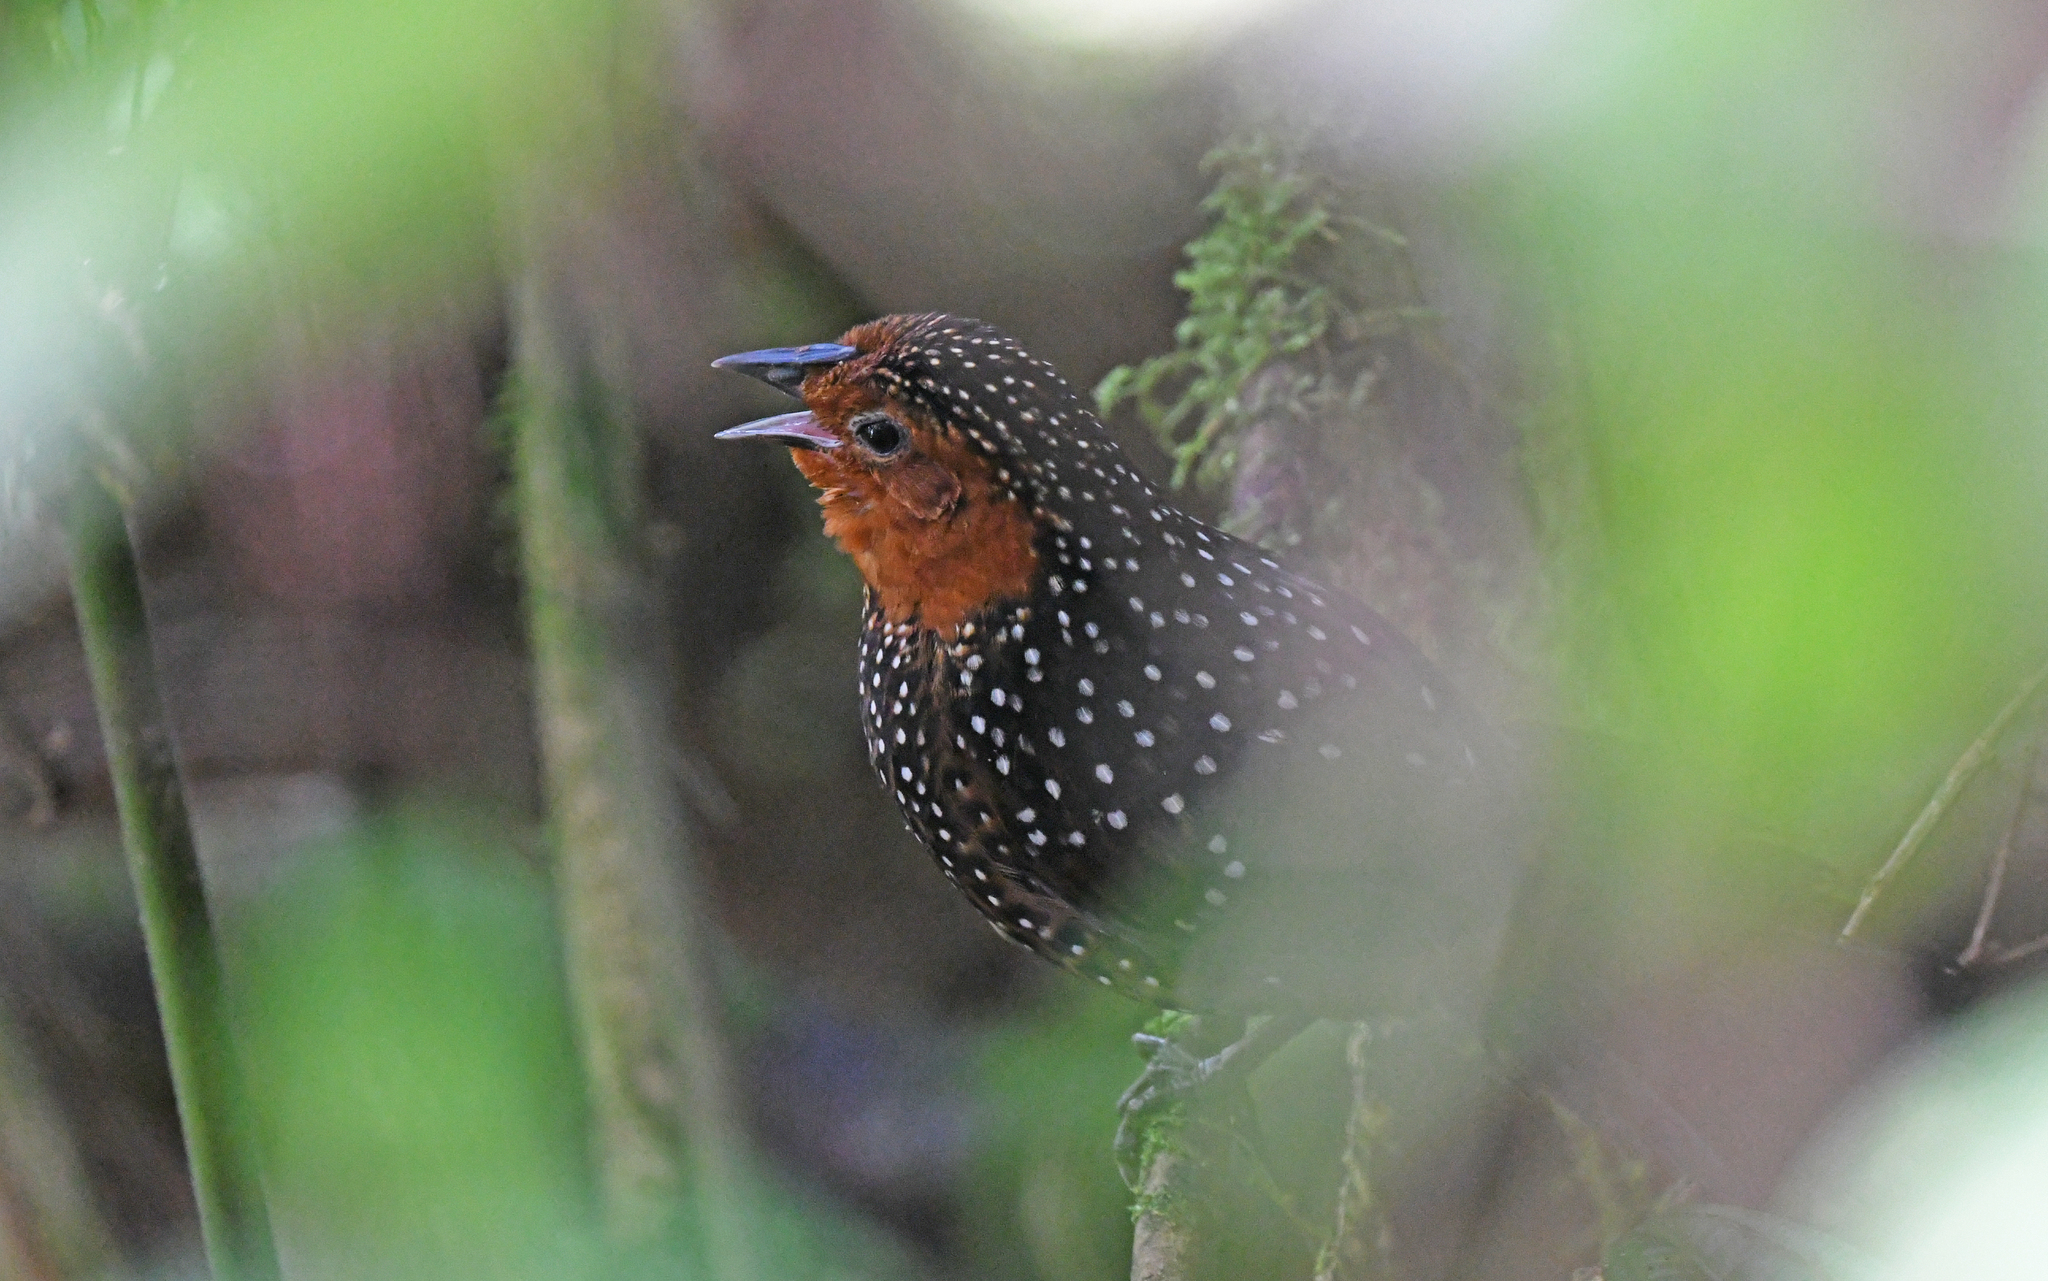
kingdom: Animalia
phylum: Chordata
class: Aves
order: Passeriformes
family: Rhinocryptidae
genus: Acropternis
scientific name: Acropternis orthonyx
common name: Ocellated tapaculo
